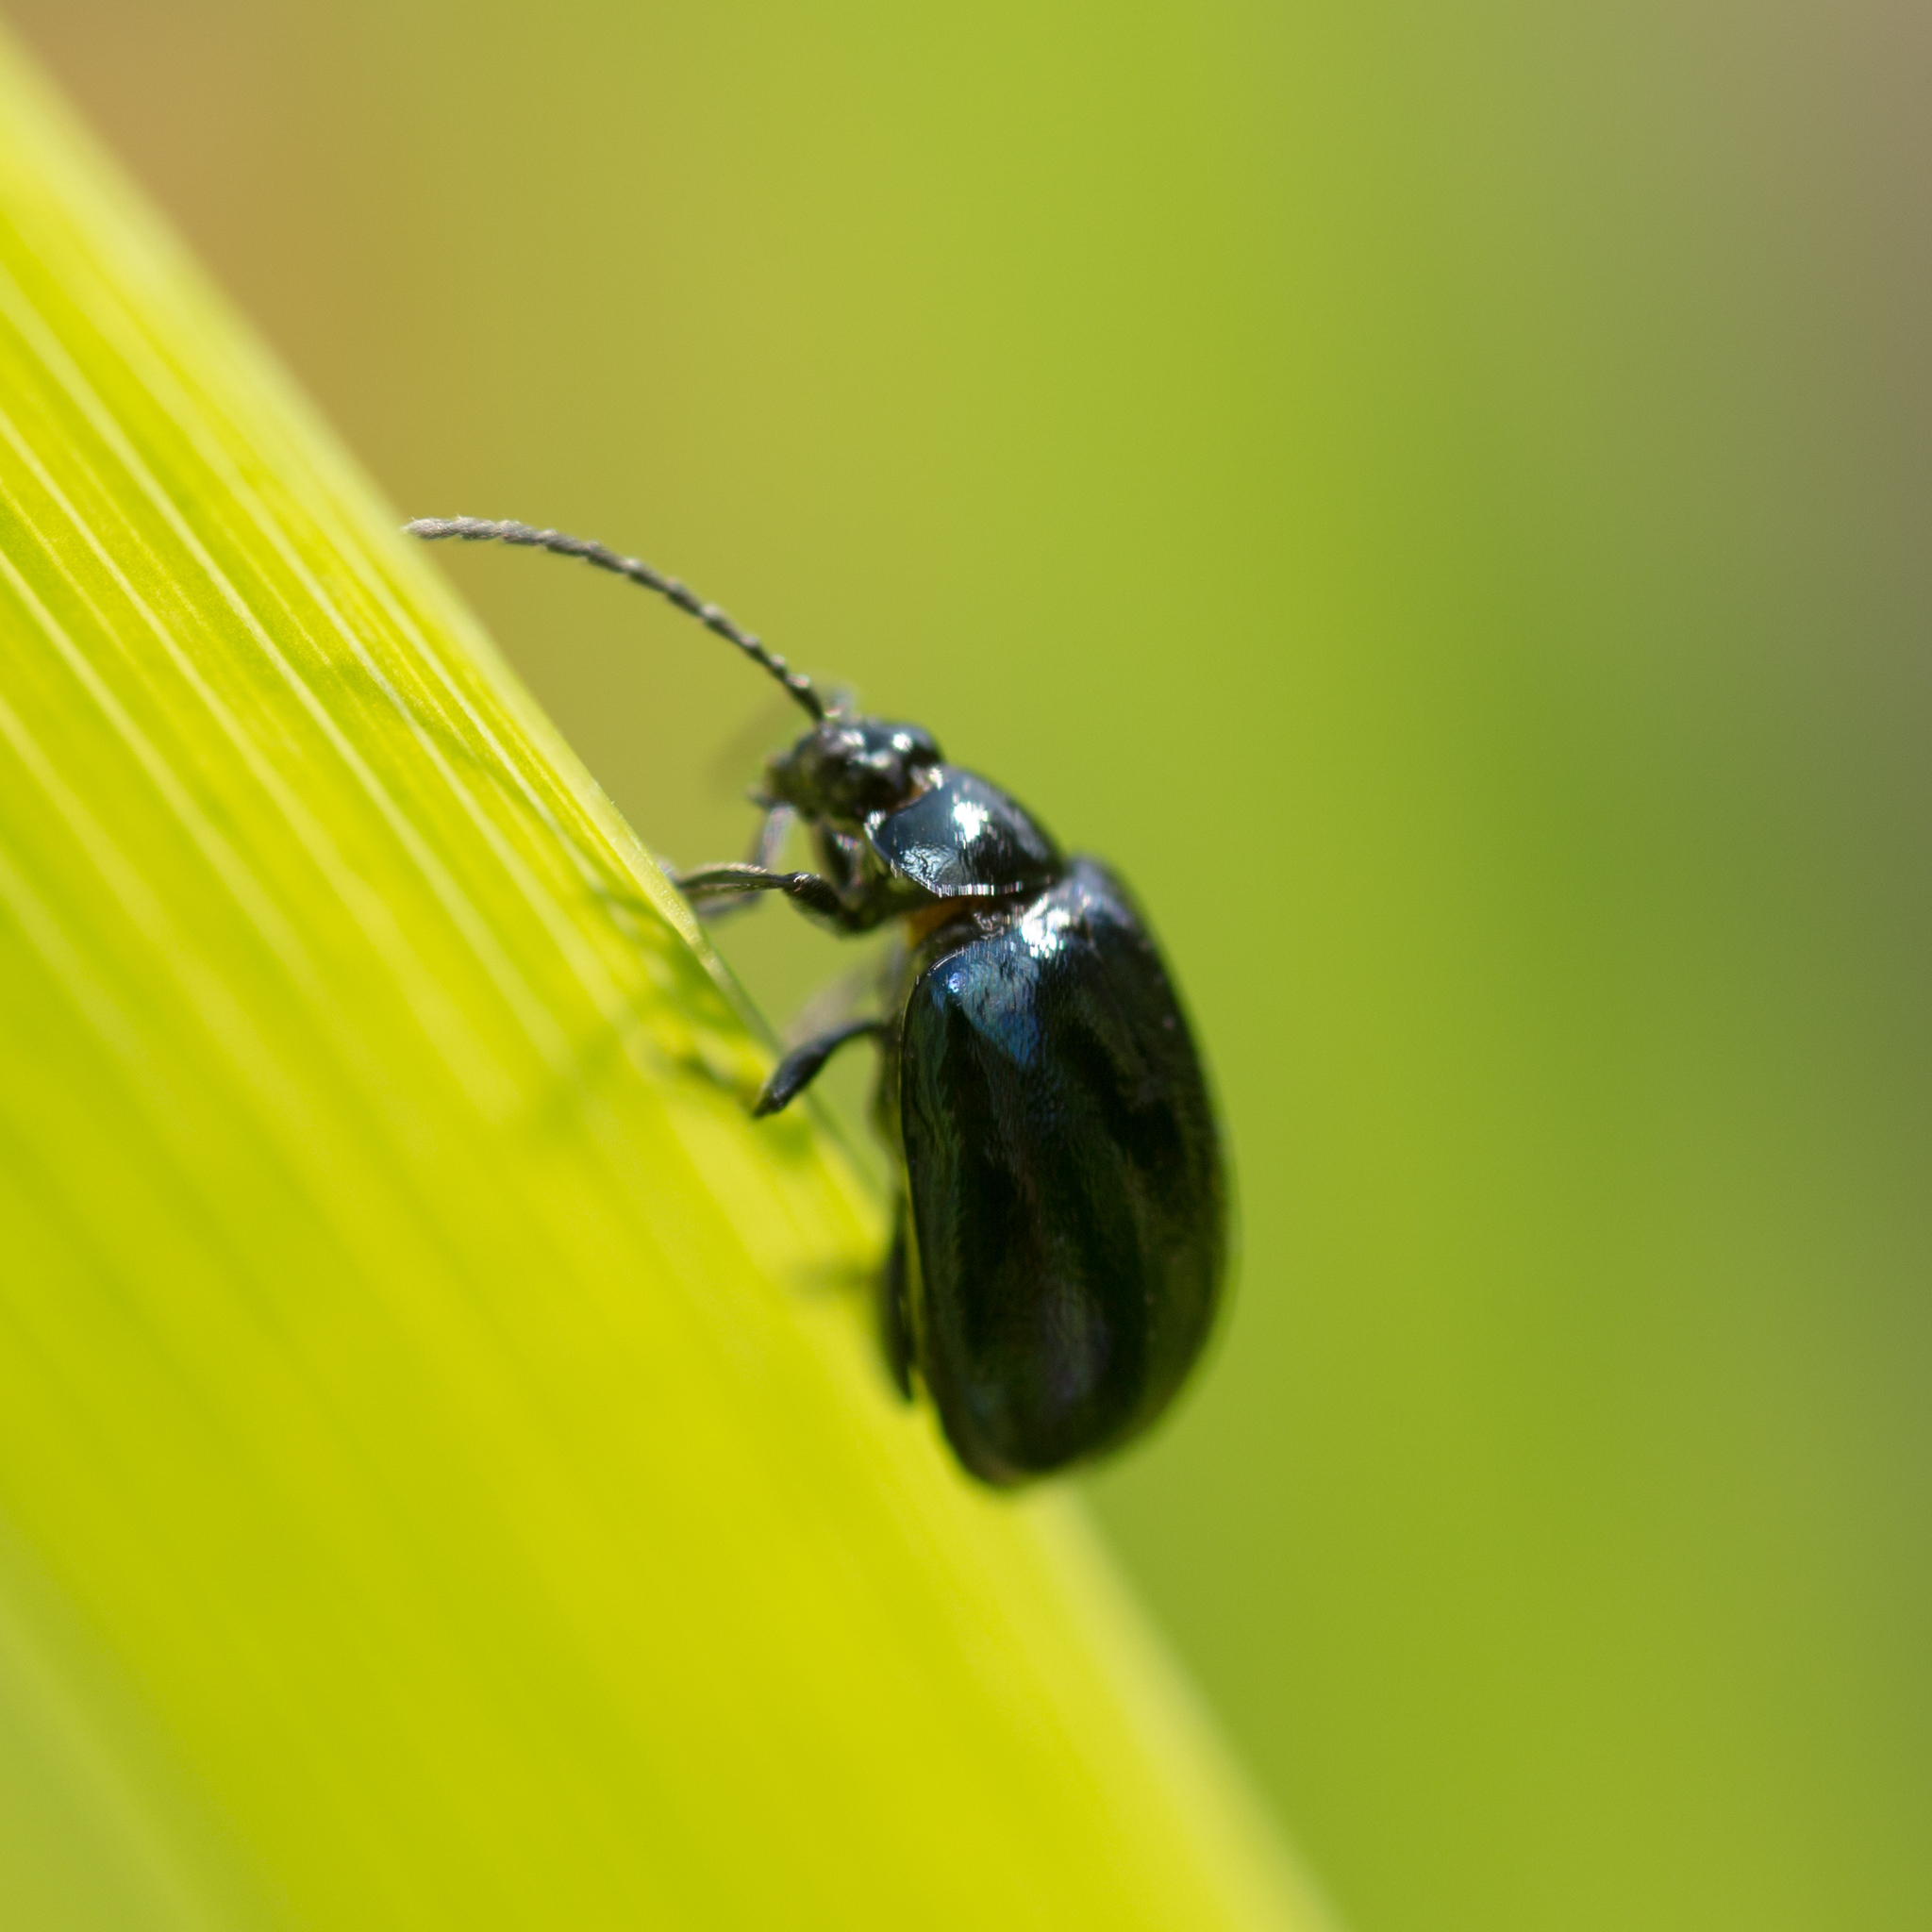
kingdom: Animalia
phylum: Arthropoda
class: Insecta
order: Coleoptera
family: Chrysomelidae
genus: Agelastica
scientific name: Agelastica alni
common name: Alder leaf beetle
